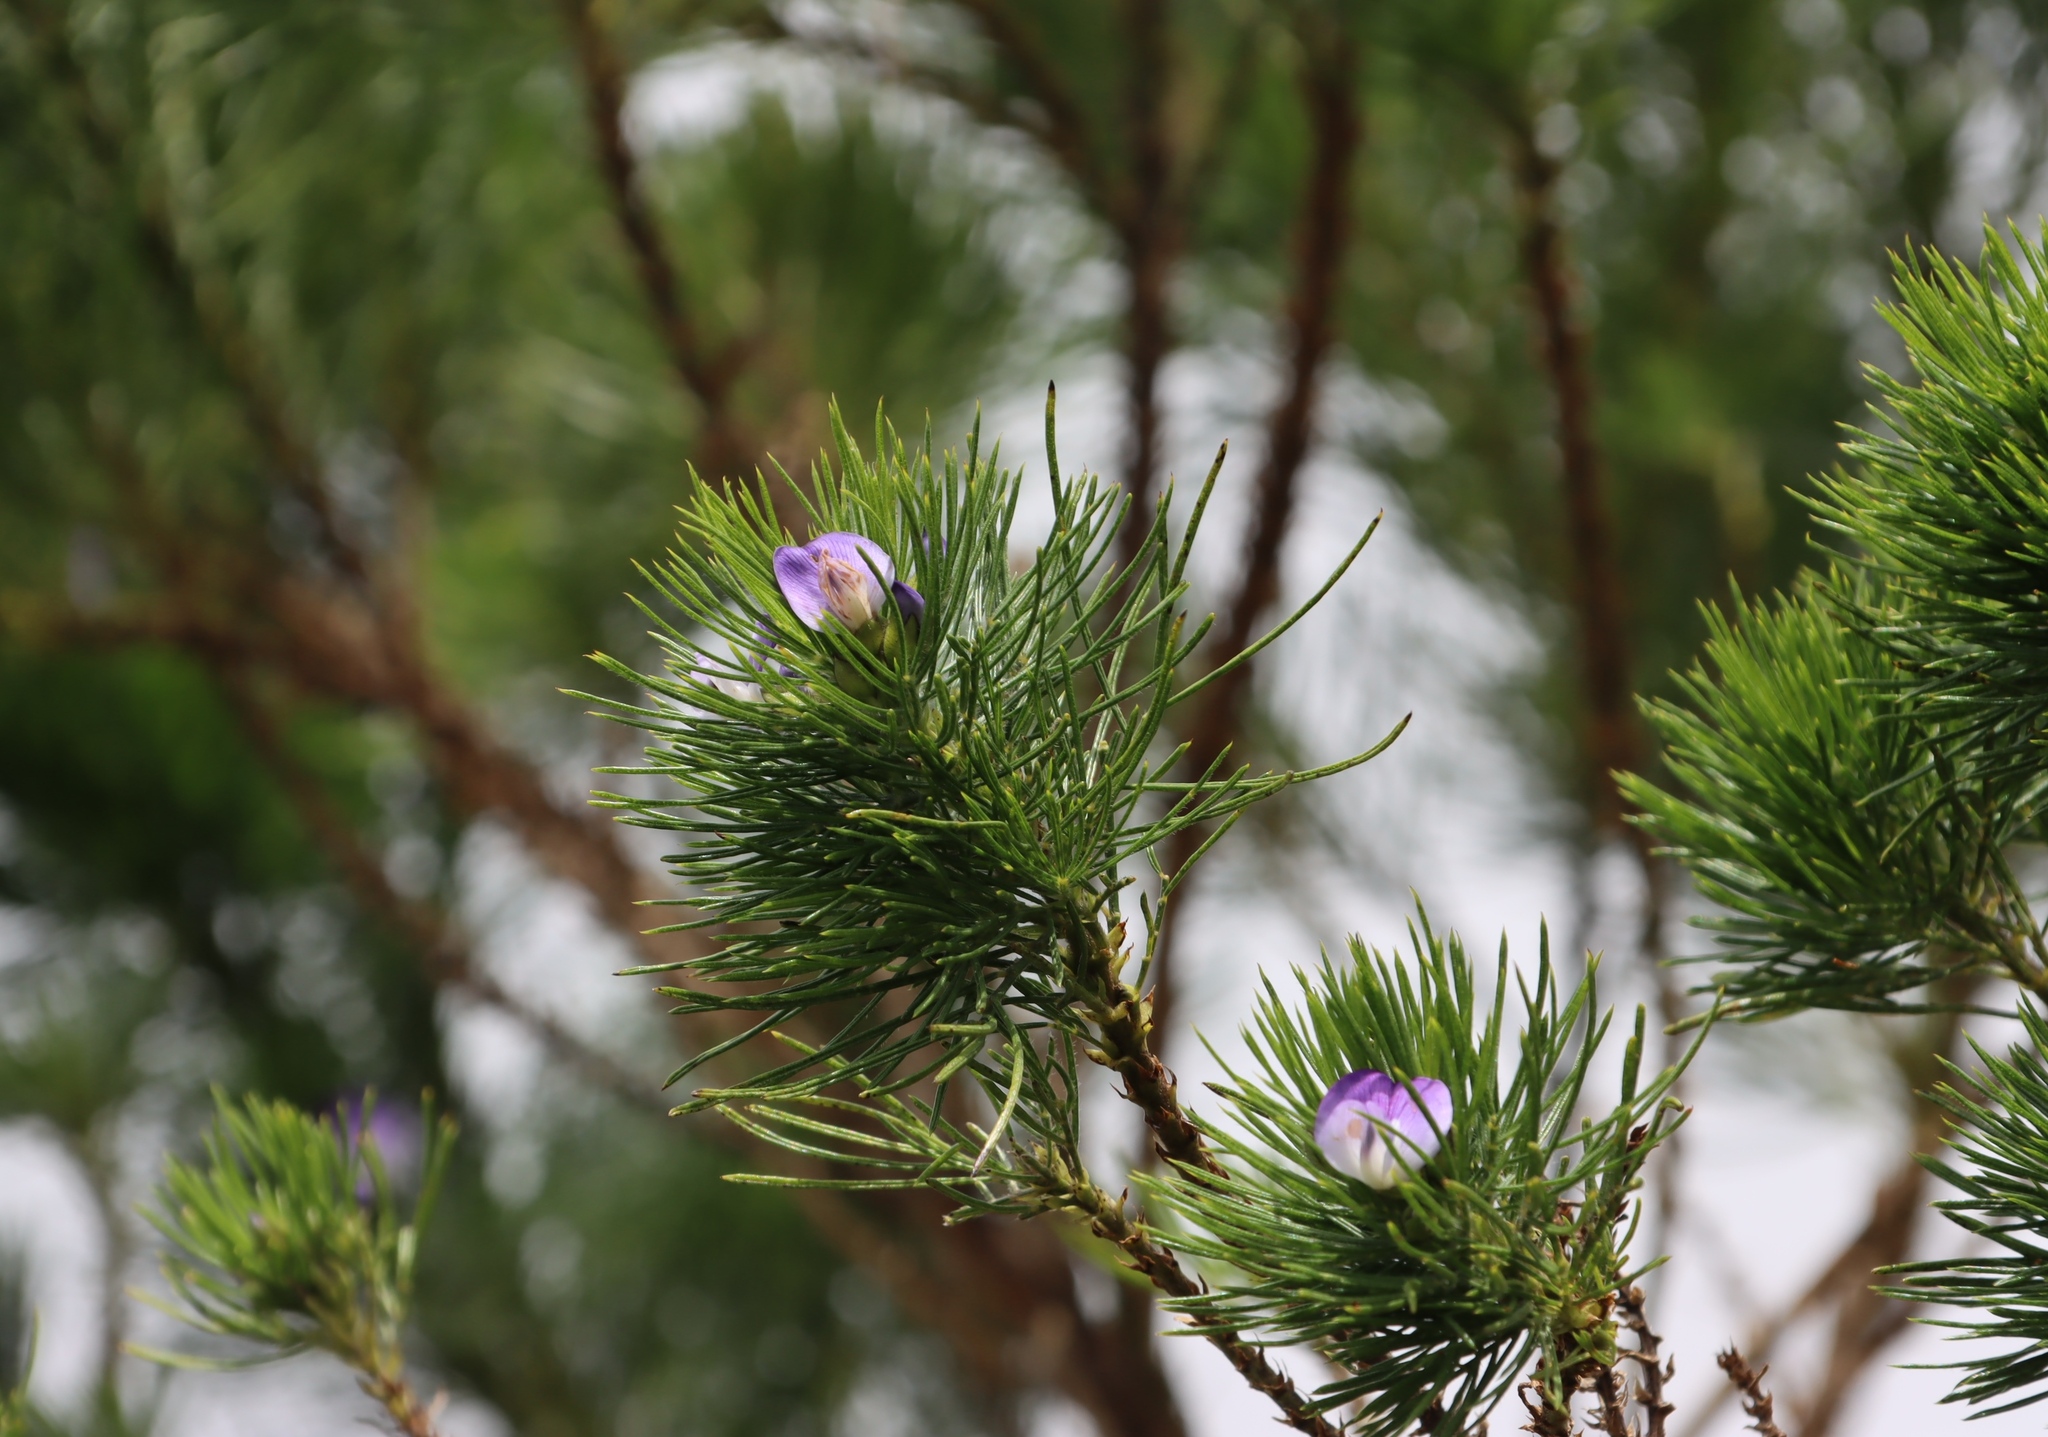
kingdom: Plantae
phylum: Tracheophyta
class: Magnoliopsida
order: Fabales
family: Fabaceae
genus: Psoralea
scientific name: Psoralea pinnata
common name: African scurfpea
